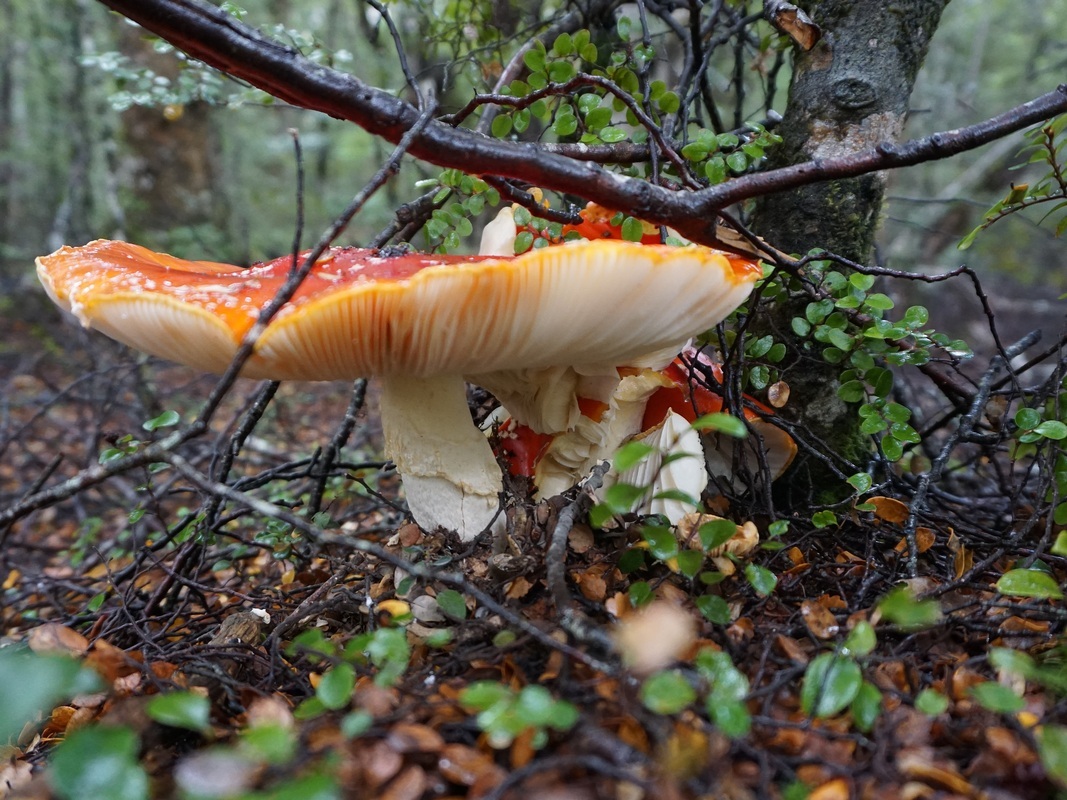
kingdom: Fungi
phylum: Basidiomycota
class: Agaricomycetes
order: Agaricales
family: Amanitaceae
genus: Amanita
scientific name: Amanita muscaria
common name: Fly agaric
